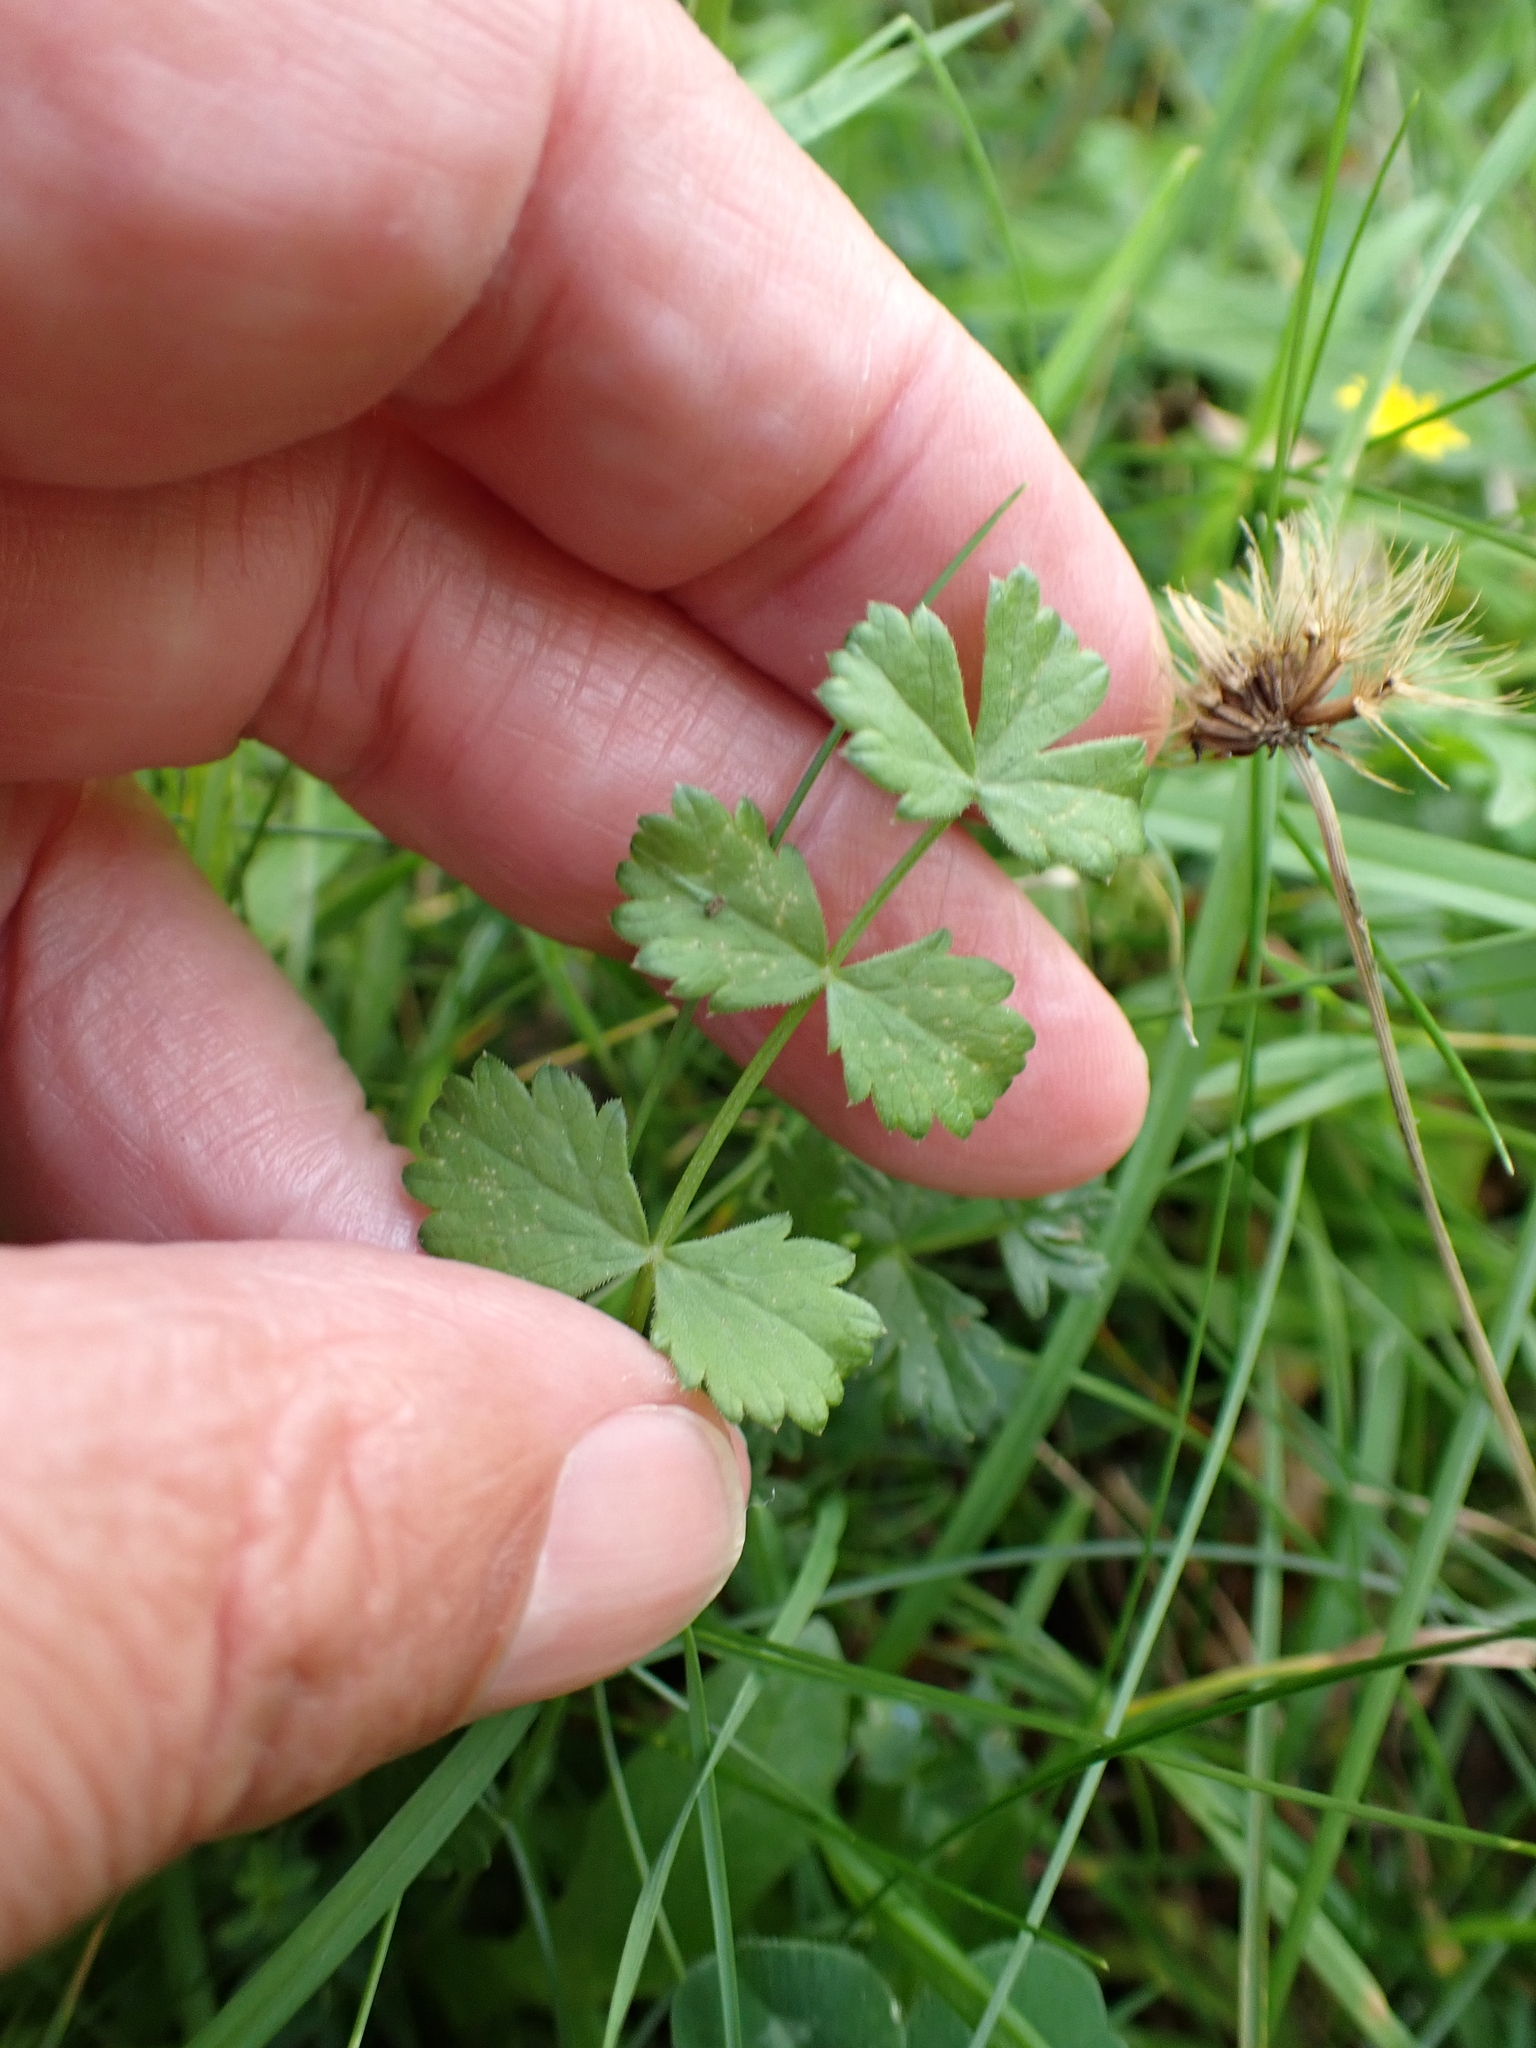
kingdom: Plantae
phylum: Tracheophyta
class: Magnoliopsida
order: Rosales
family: Rosaceae
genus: Poterium
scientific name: Poterium sanguisorba
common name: Salad burnet
